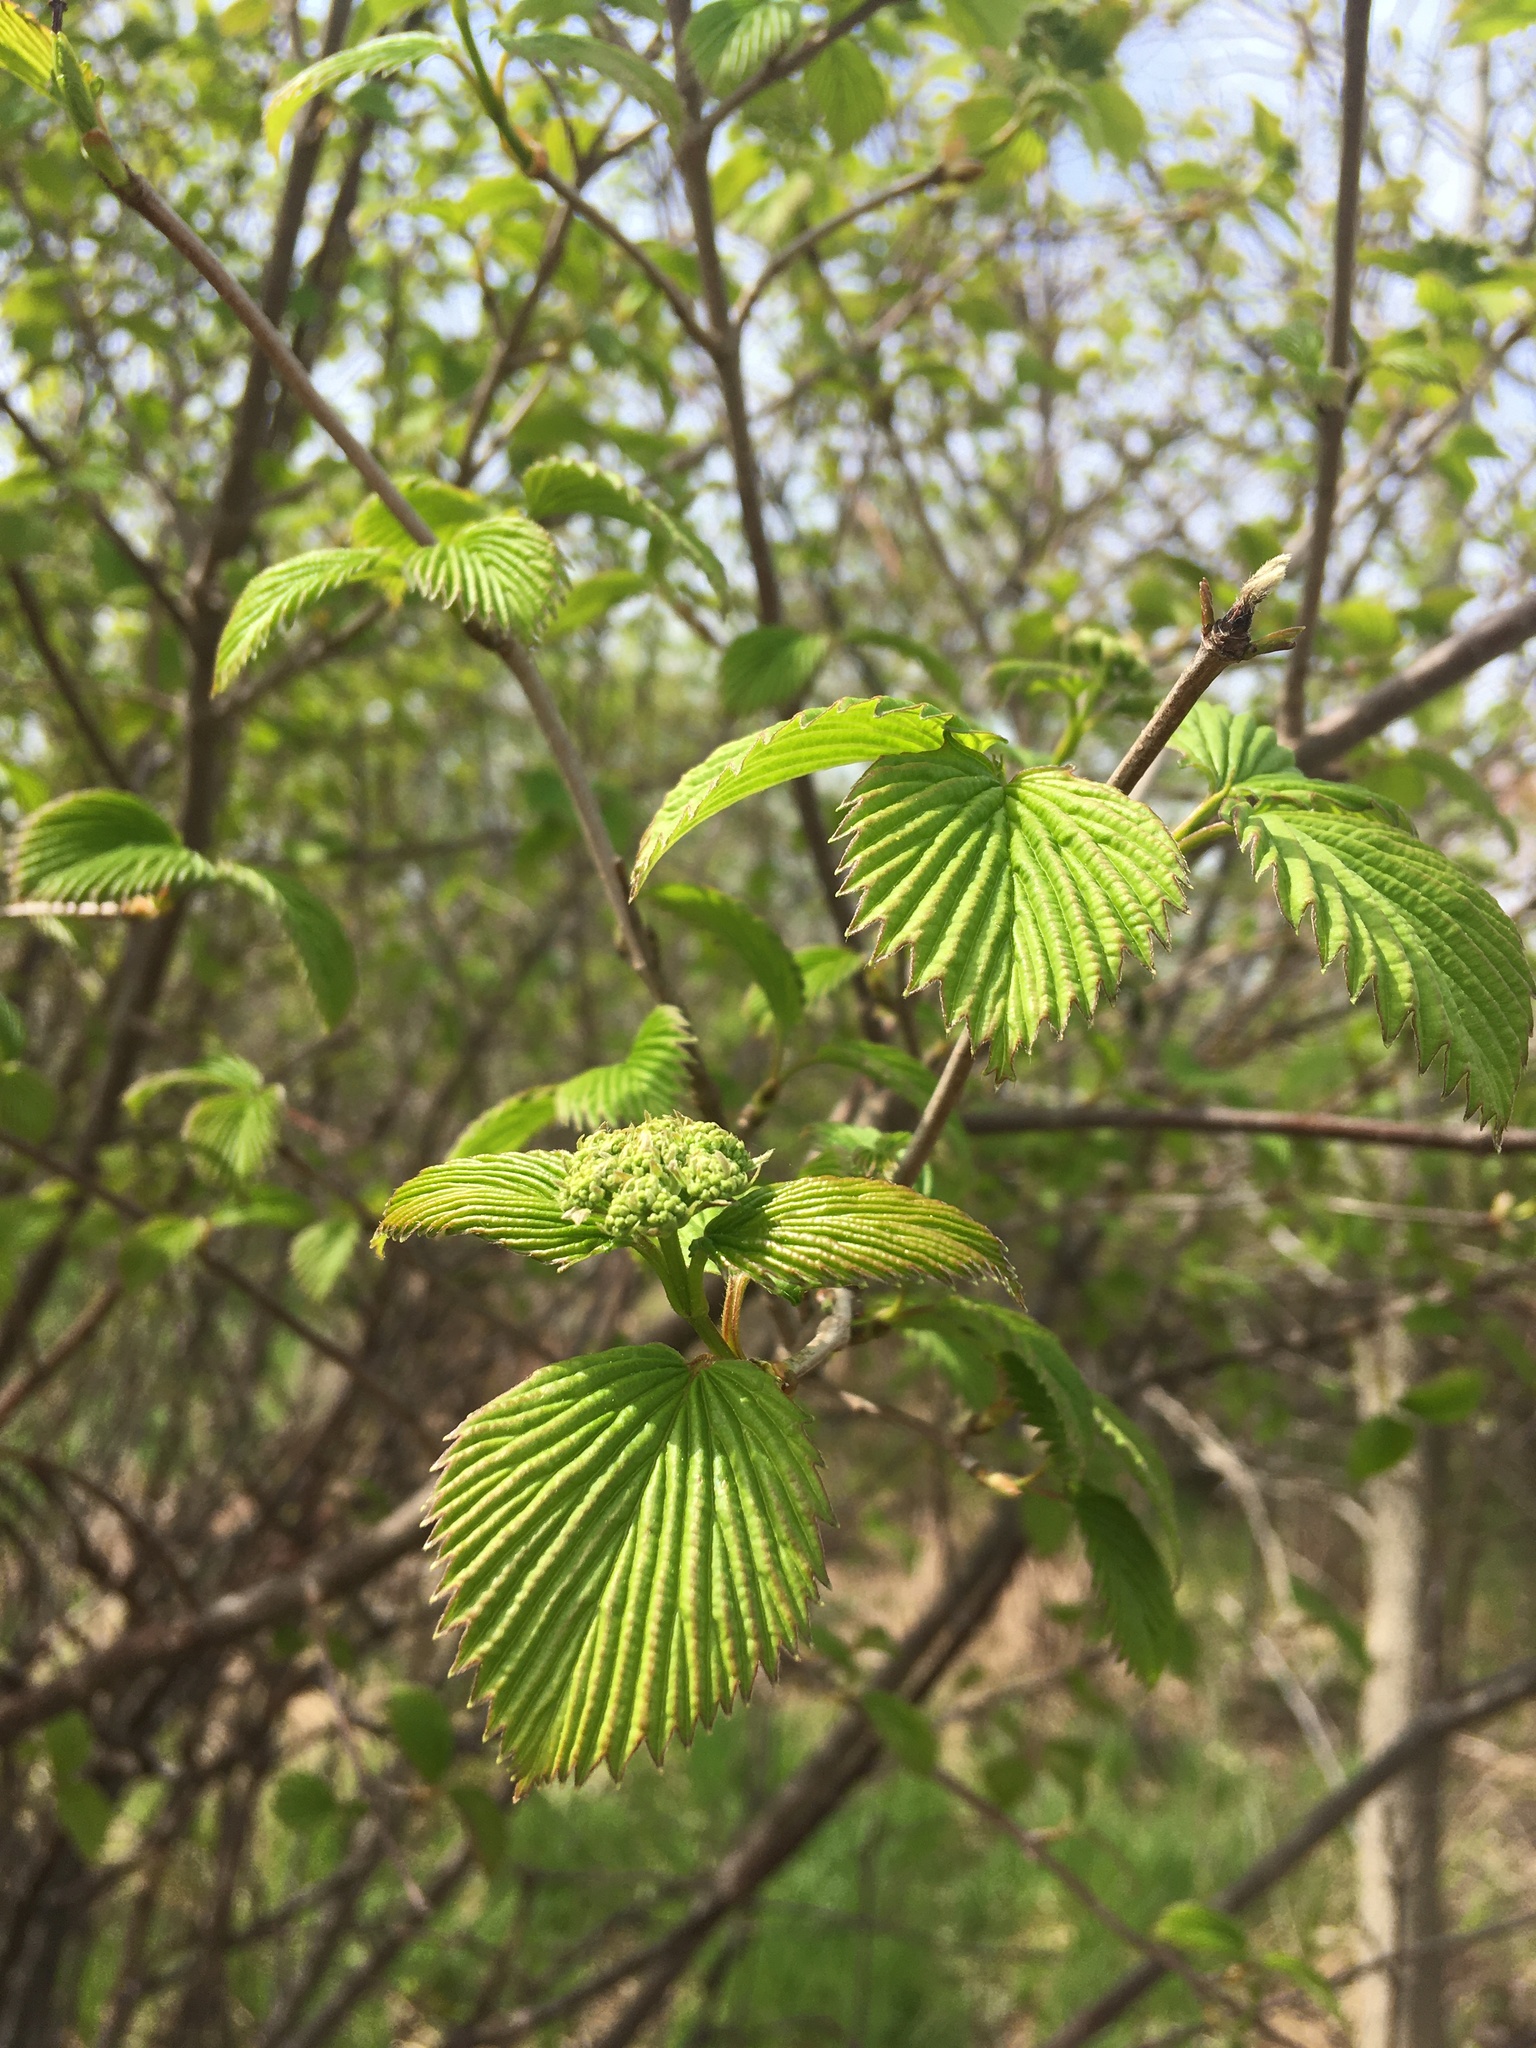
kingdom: Plantae
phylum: Tracheophyta
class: Magnoliopsida
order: Dipsacales
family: Viburnaceae
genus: Viburnum
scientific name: Viburnum dentatum
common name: Arrow-wood
